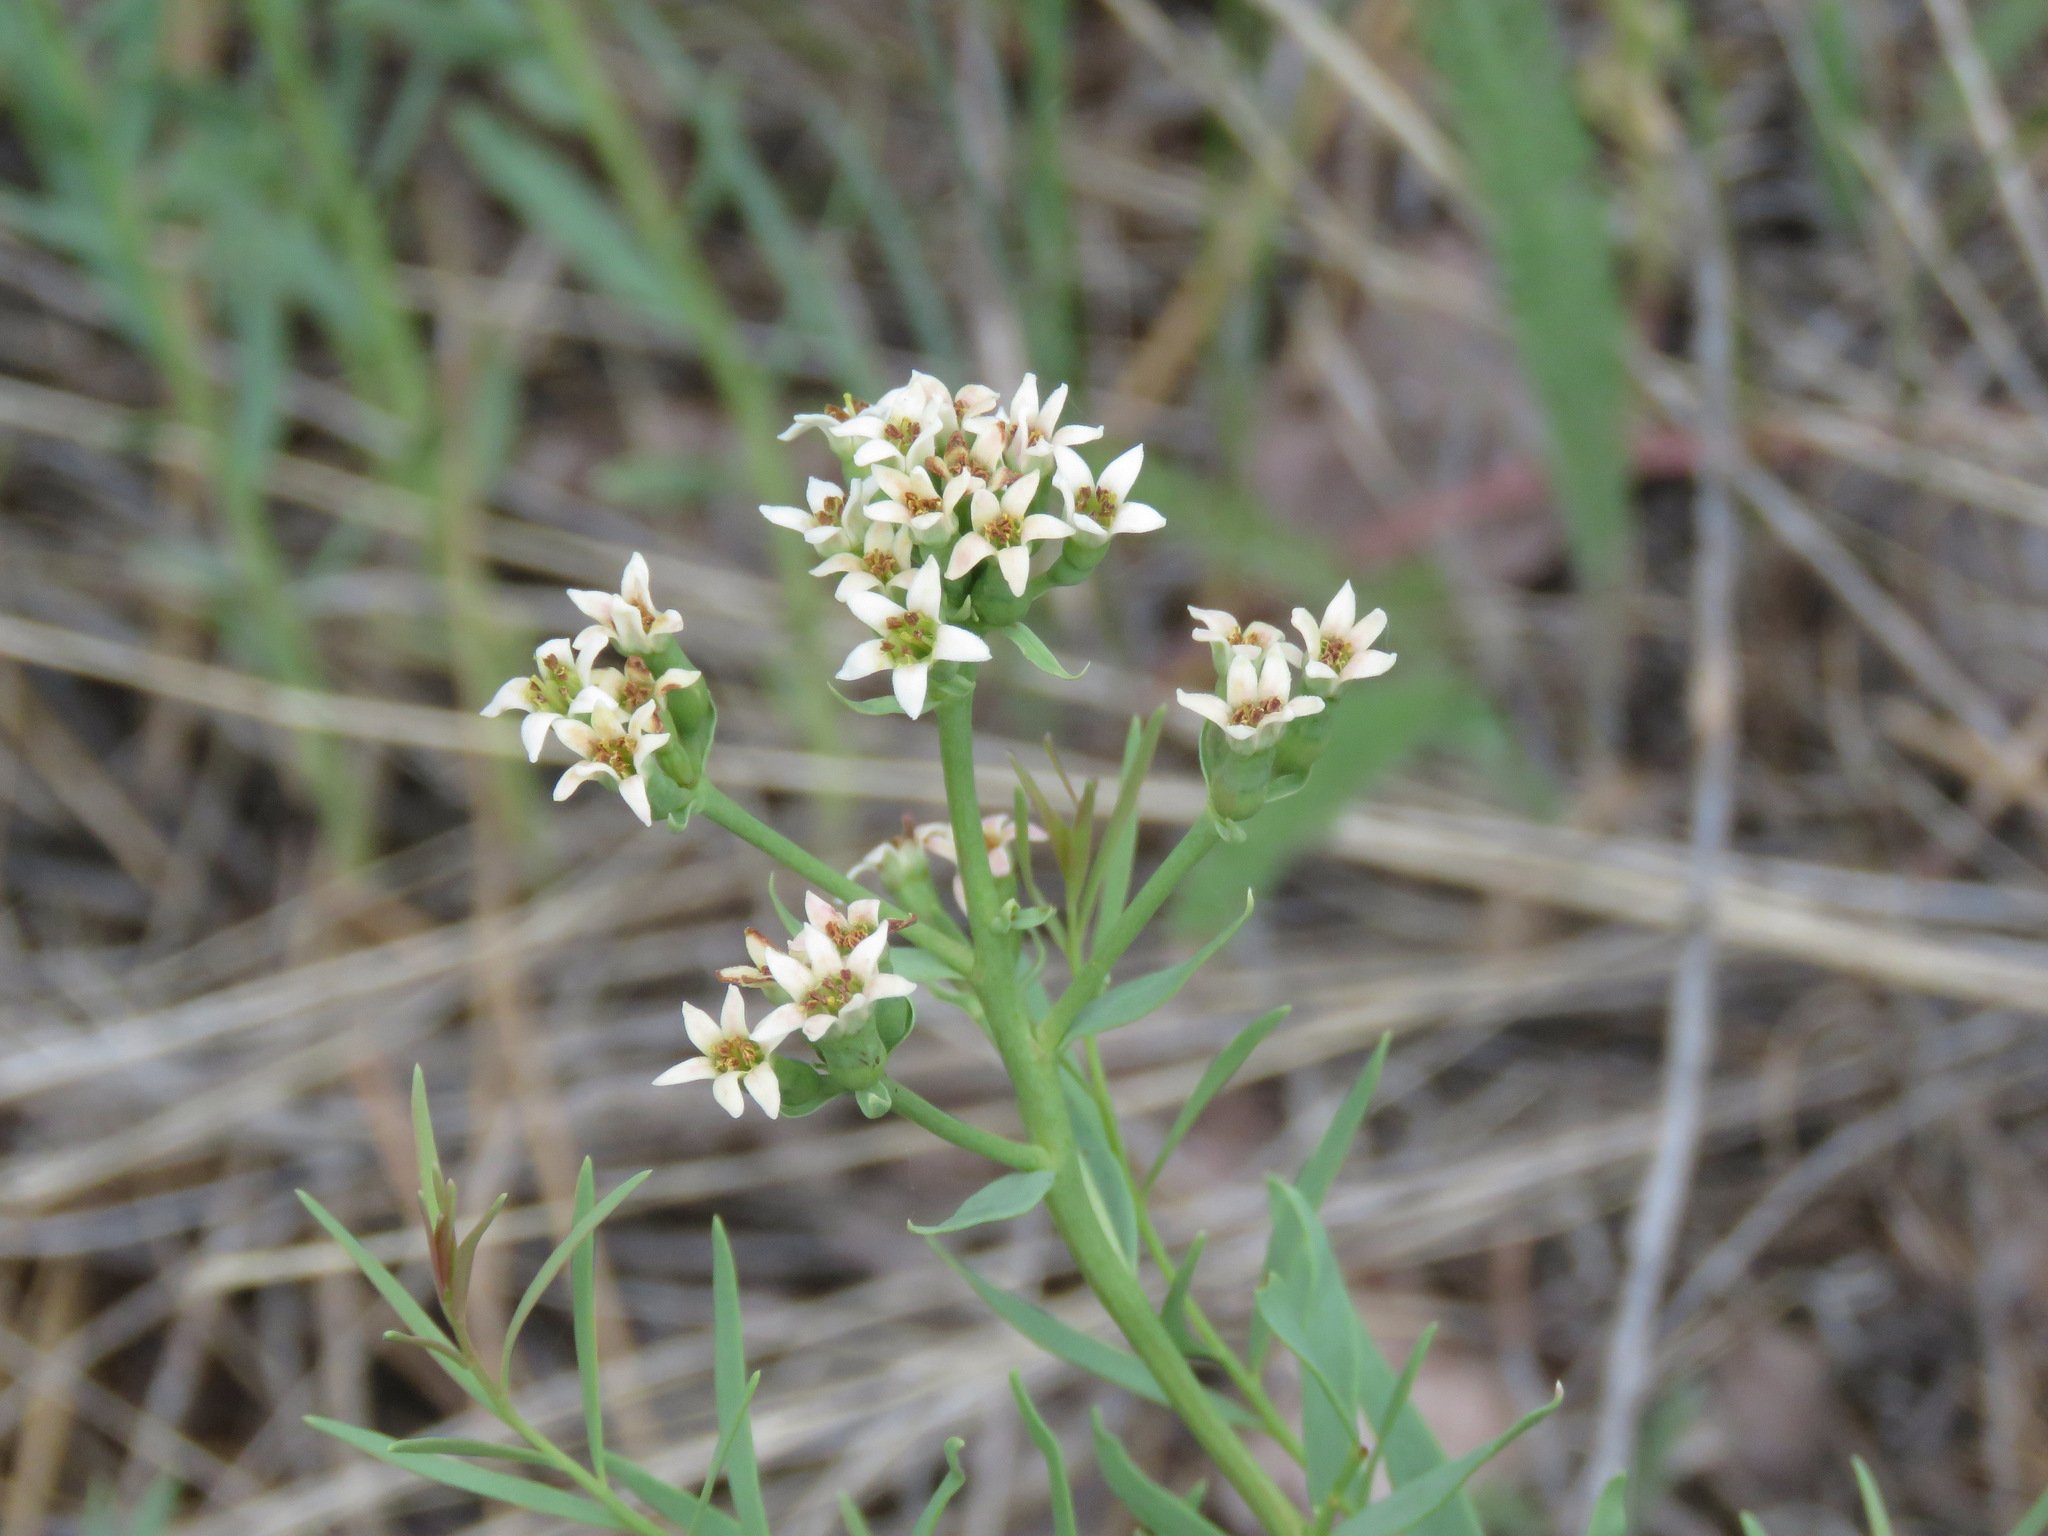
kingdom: Plantae
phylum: Tracheophyta
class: Magnoliopsida
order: Santalales
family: Comandraceae
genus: Comandra
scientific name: Comandra umbellata
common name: Bastard toadflax
